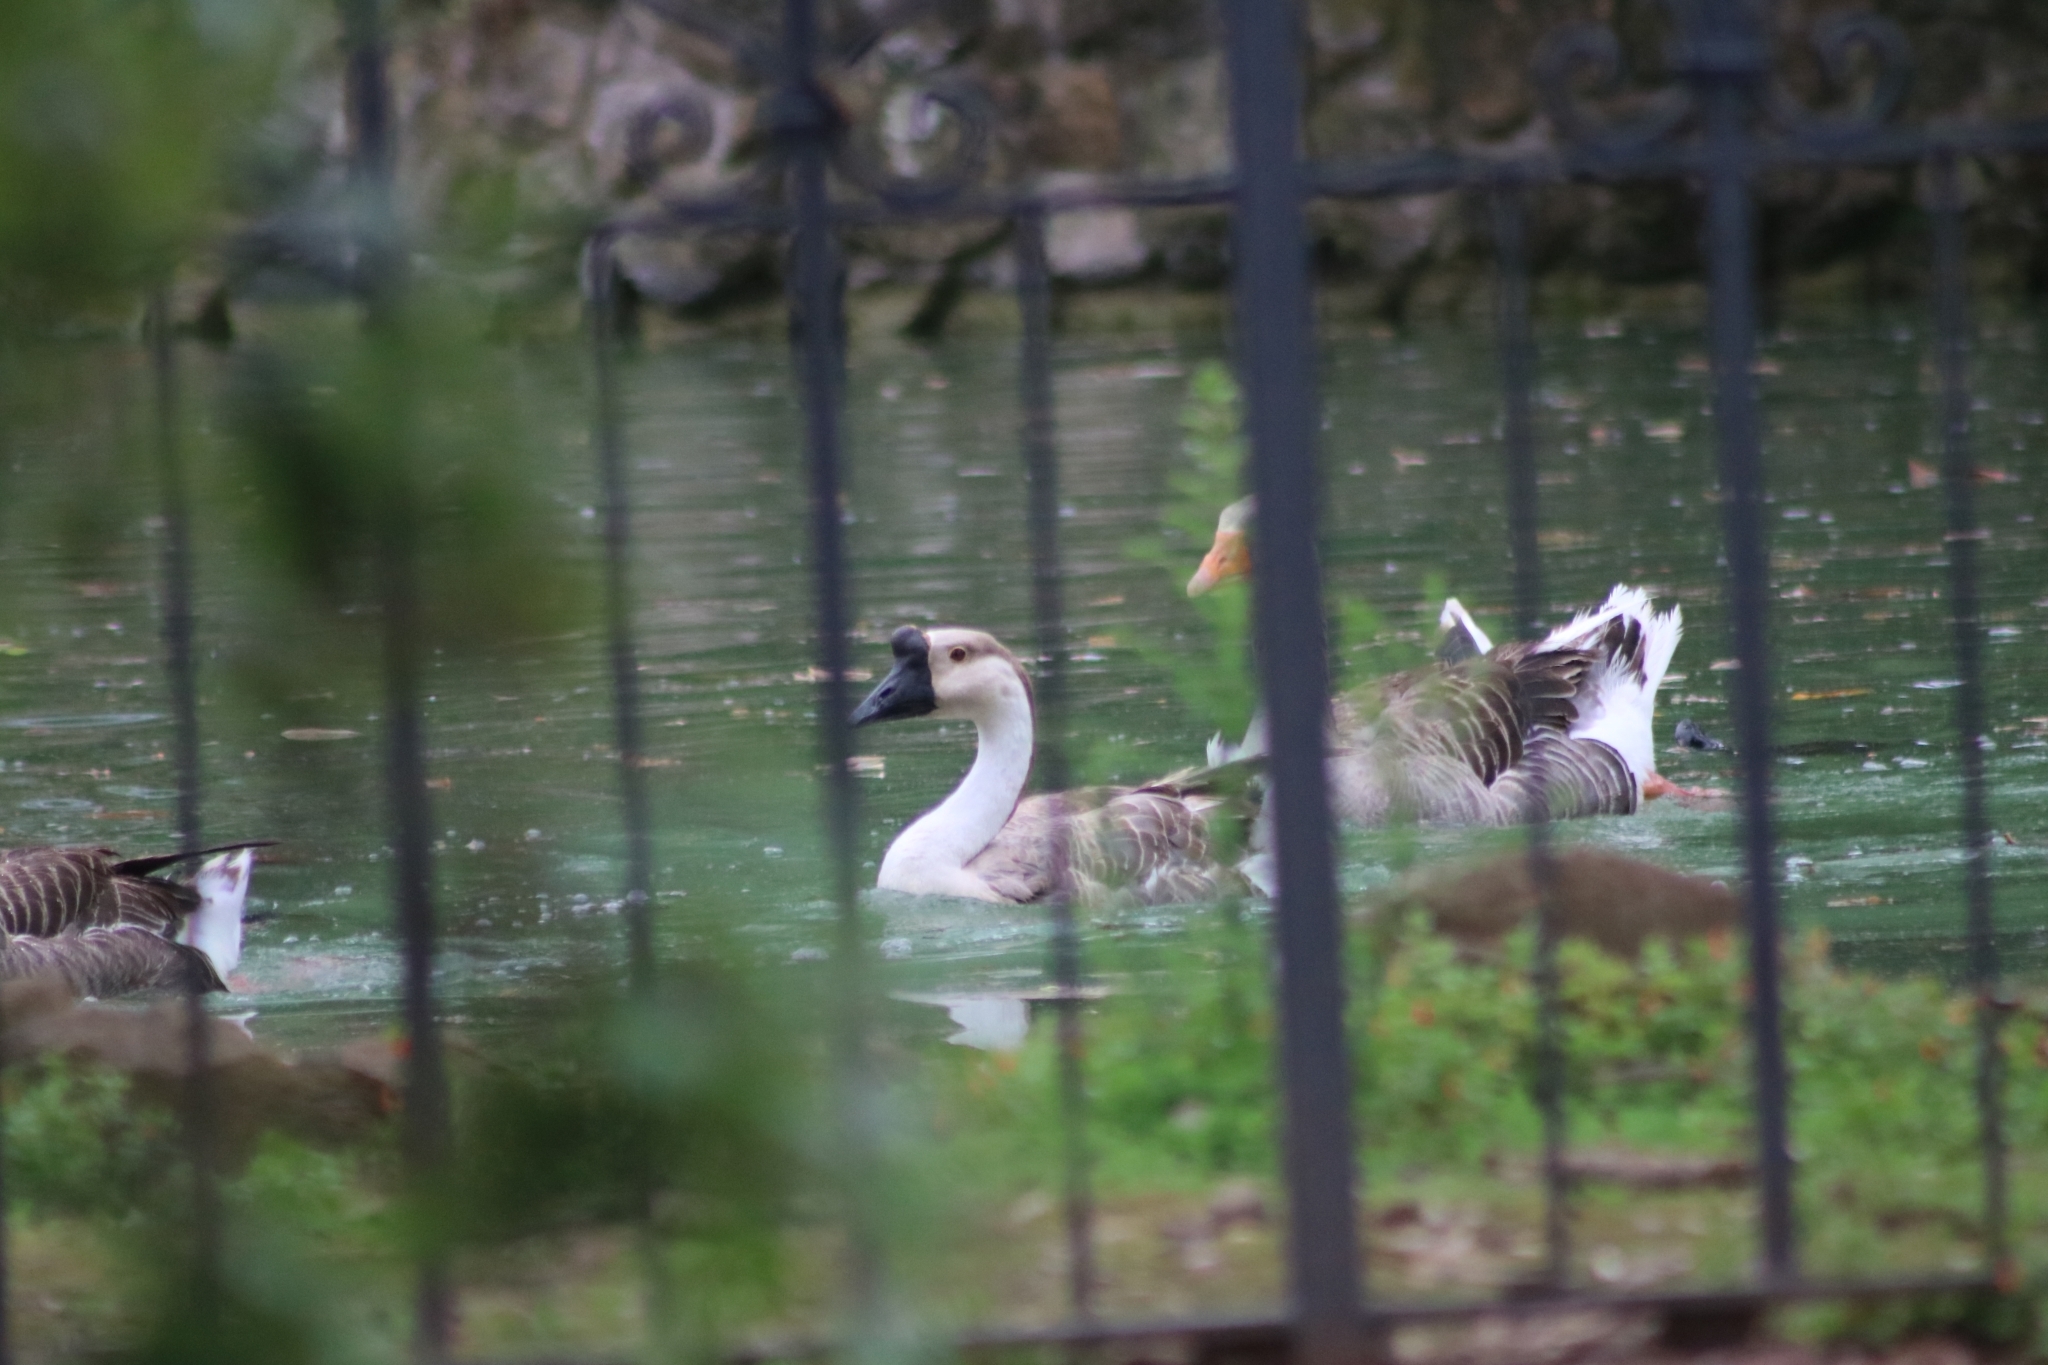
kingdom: Animalia
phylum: Chordata
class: Aves
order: Anseriformes
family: Anatidae
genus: Anser
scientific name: Anser cygnoides
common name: Swan goose
